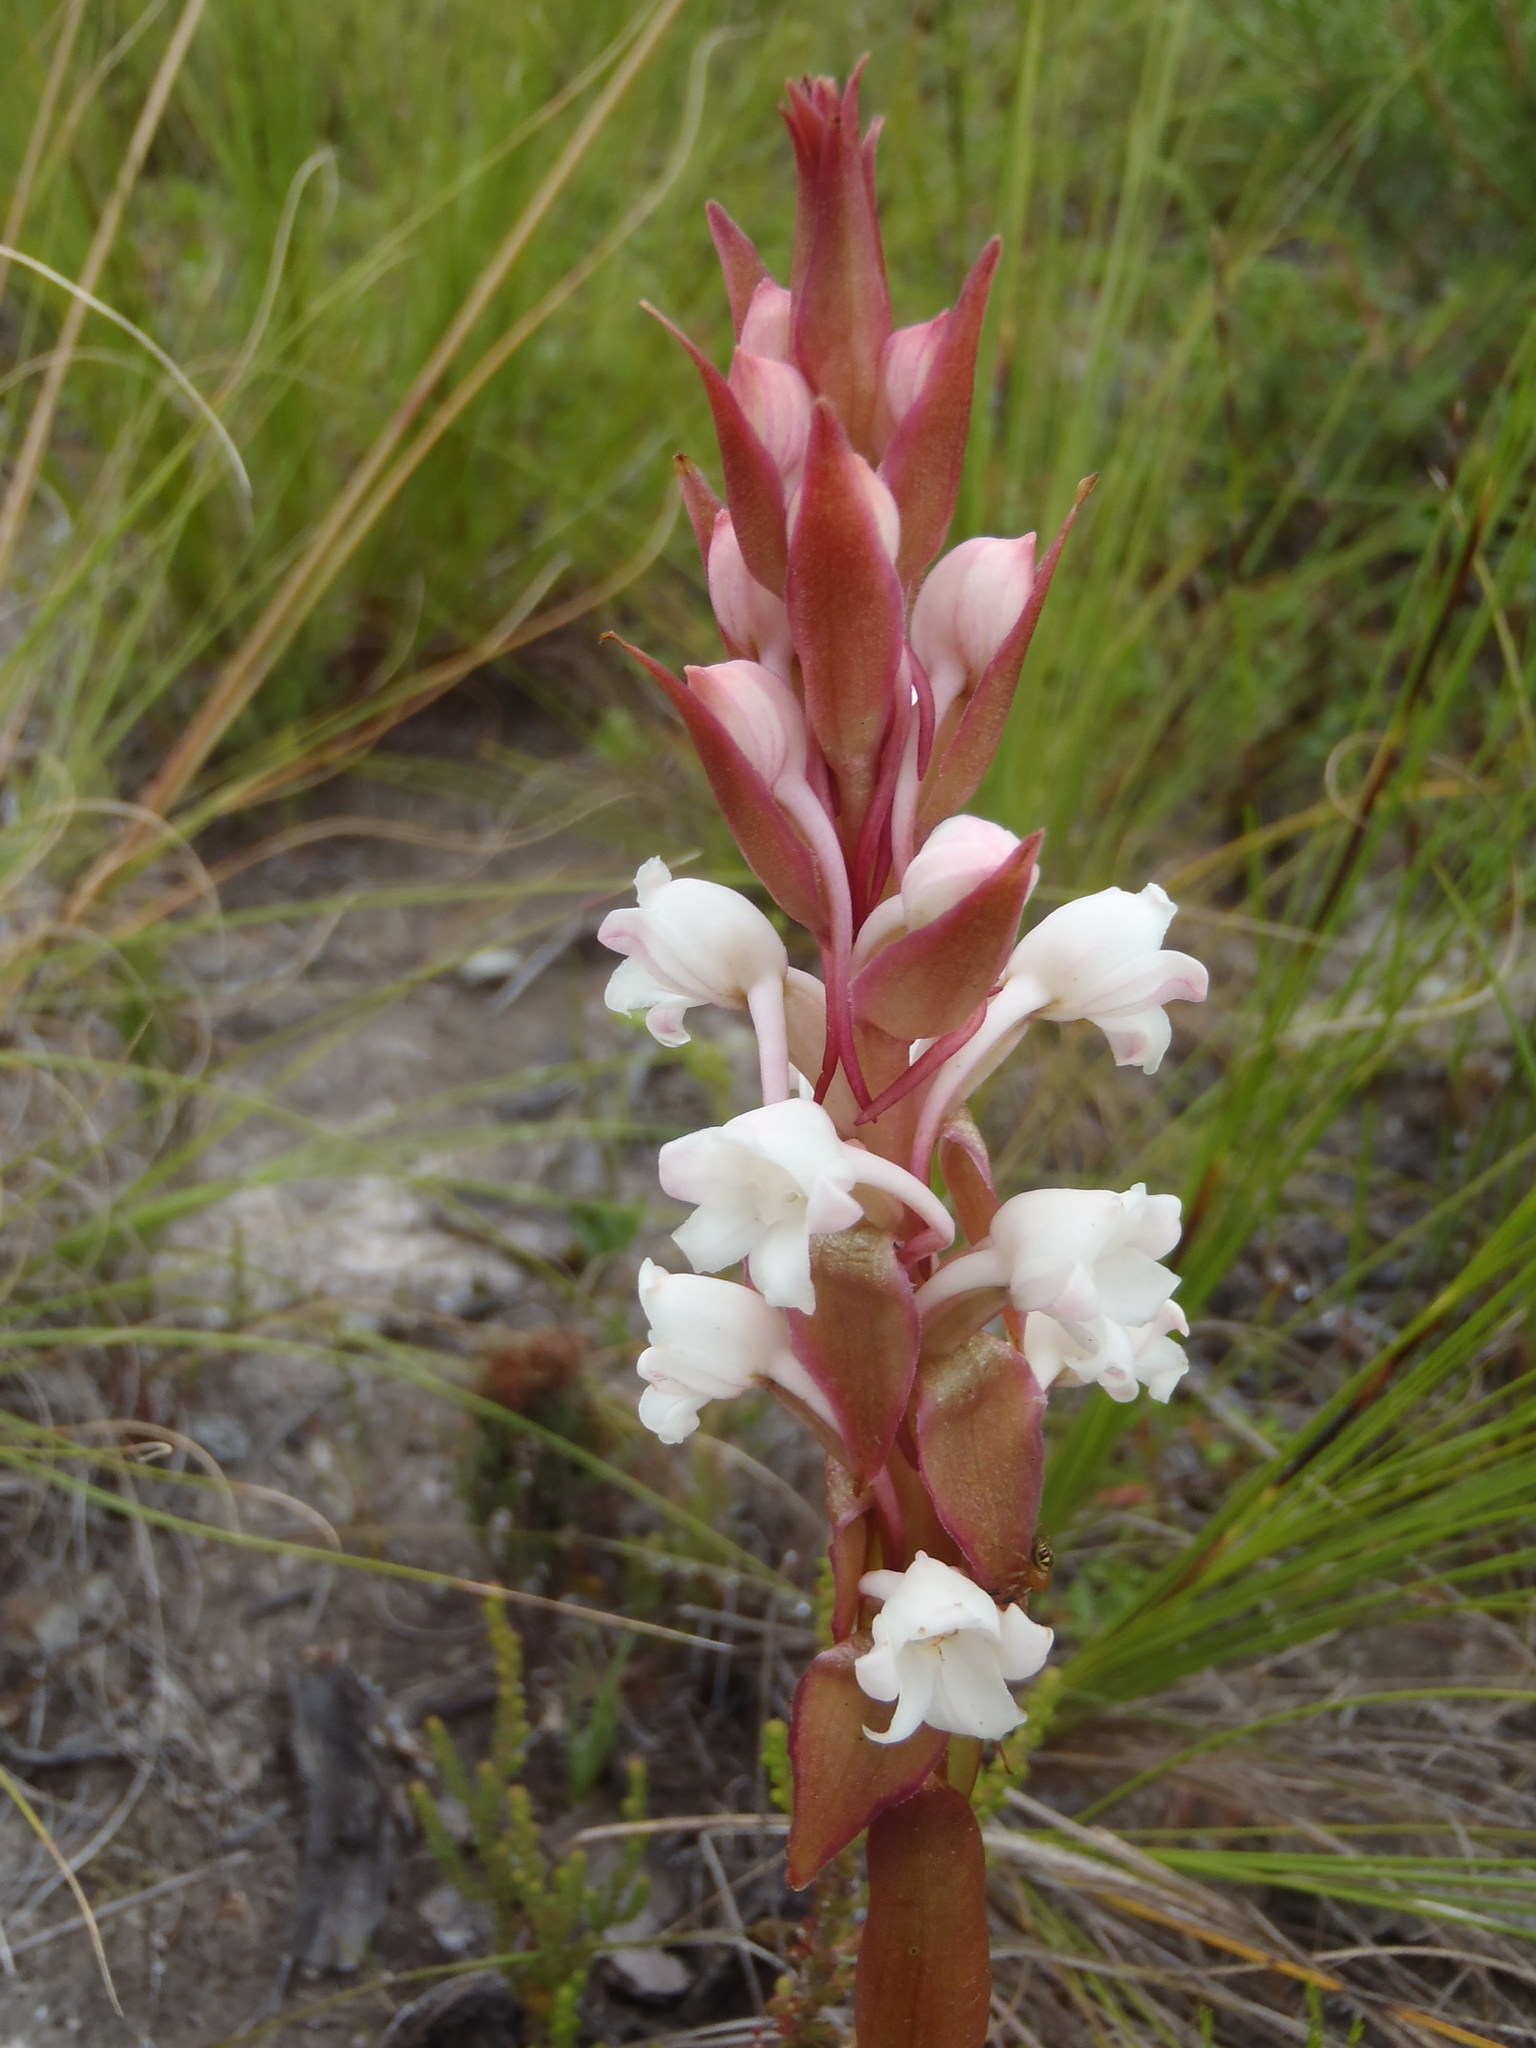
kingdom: Plantae
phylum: Tracheophyta
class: Liliopsida
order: Asparagales
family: Orchidaceae
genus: Satyrium
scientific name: Satyrium acuminatum
